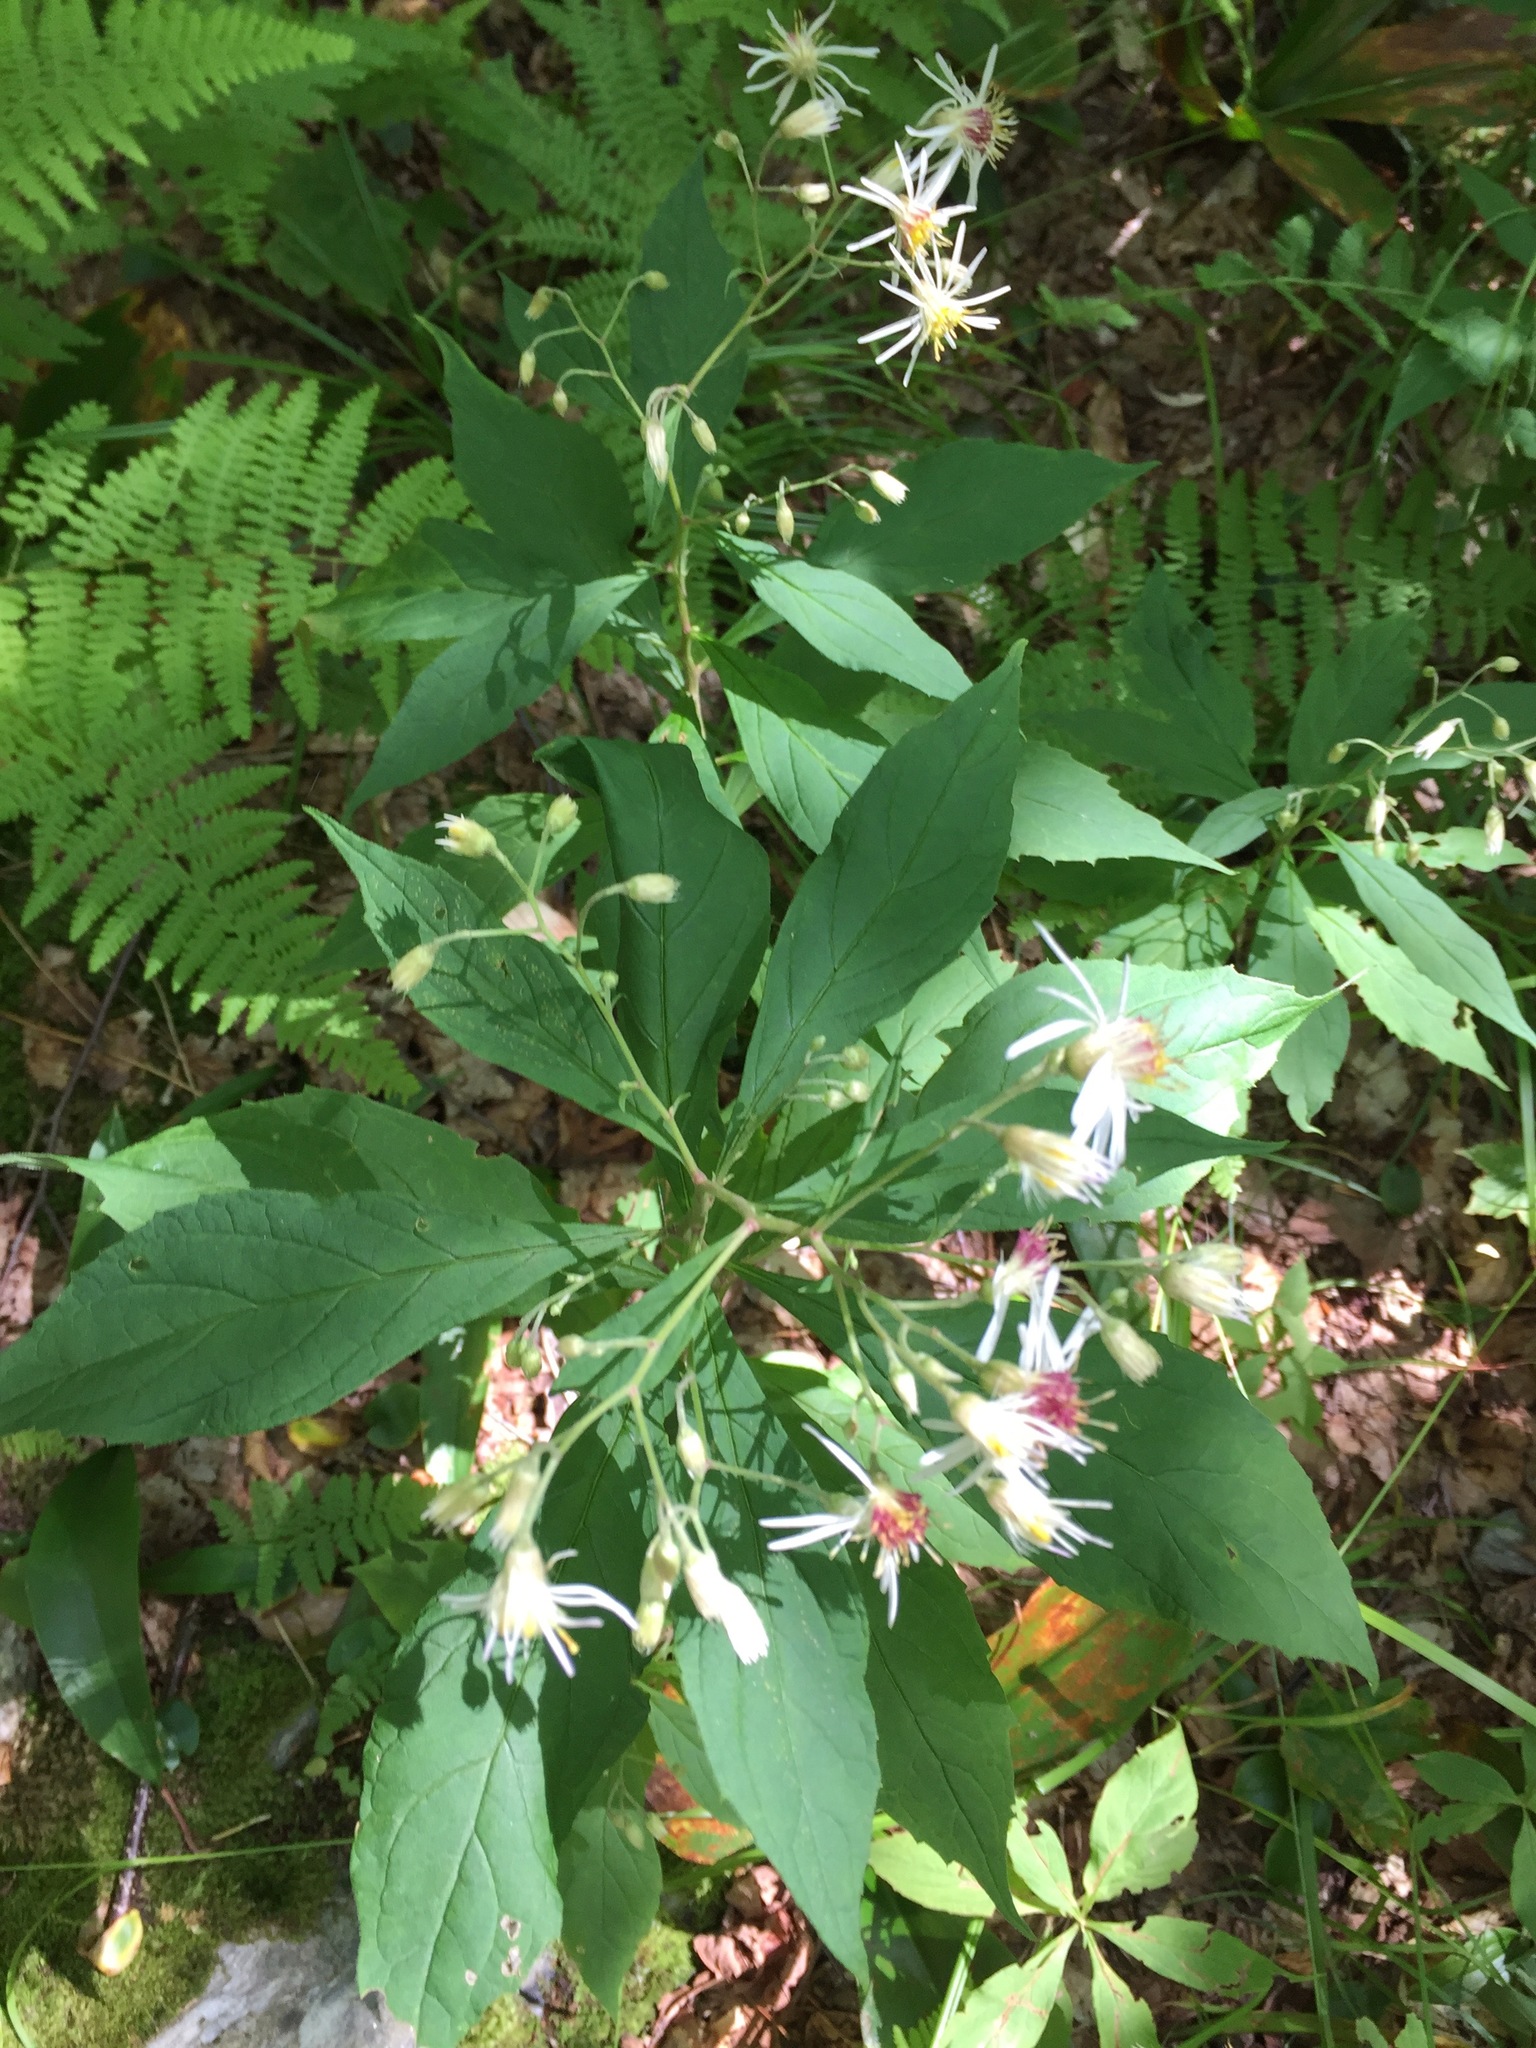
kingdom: Plantae
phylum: Tracheophyta
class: Magnoliopsida
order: Asterales
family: Asteraceae
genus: Oclemena
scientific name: Oclemena acuminata
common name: Mountain aster
